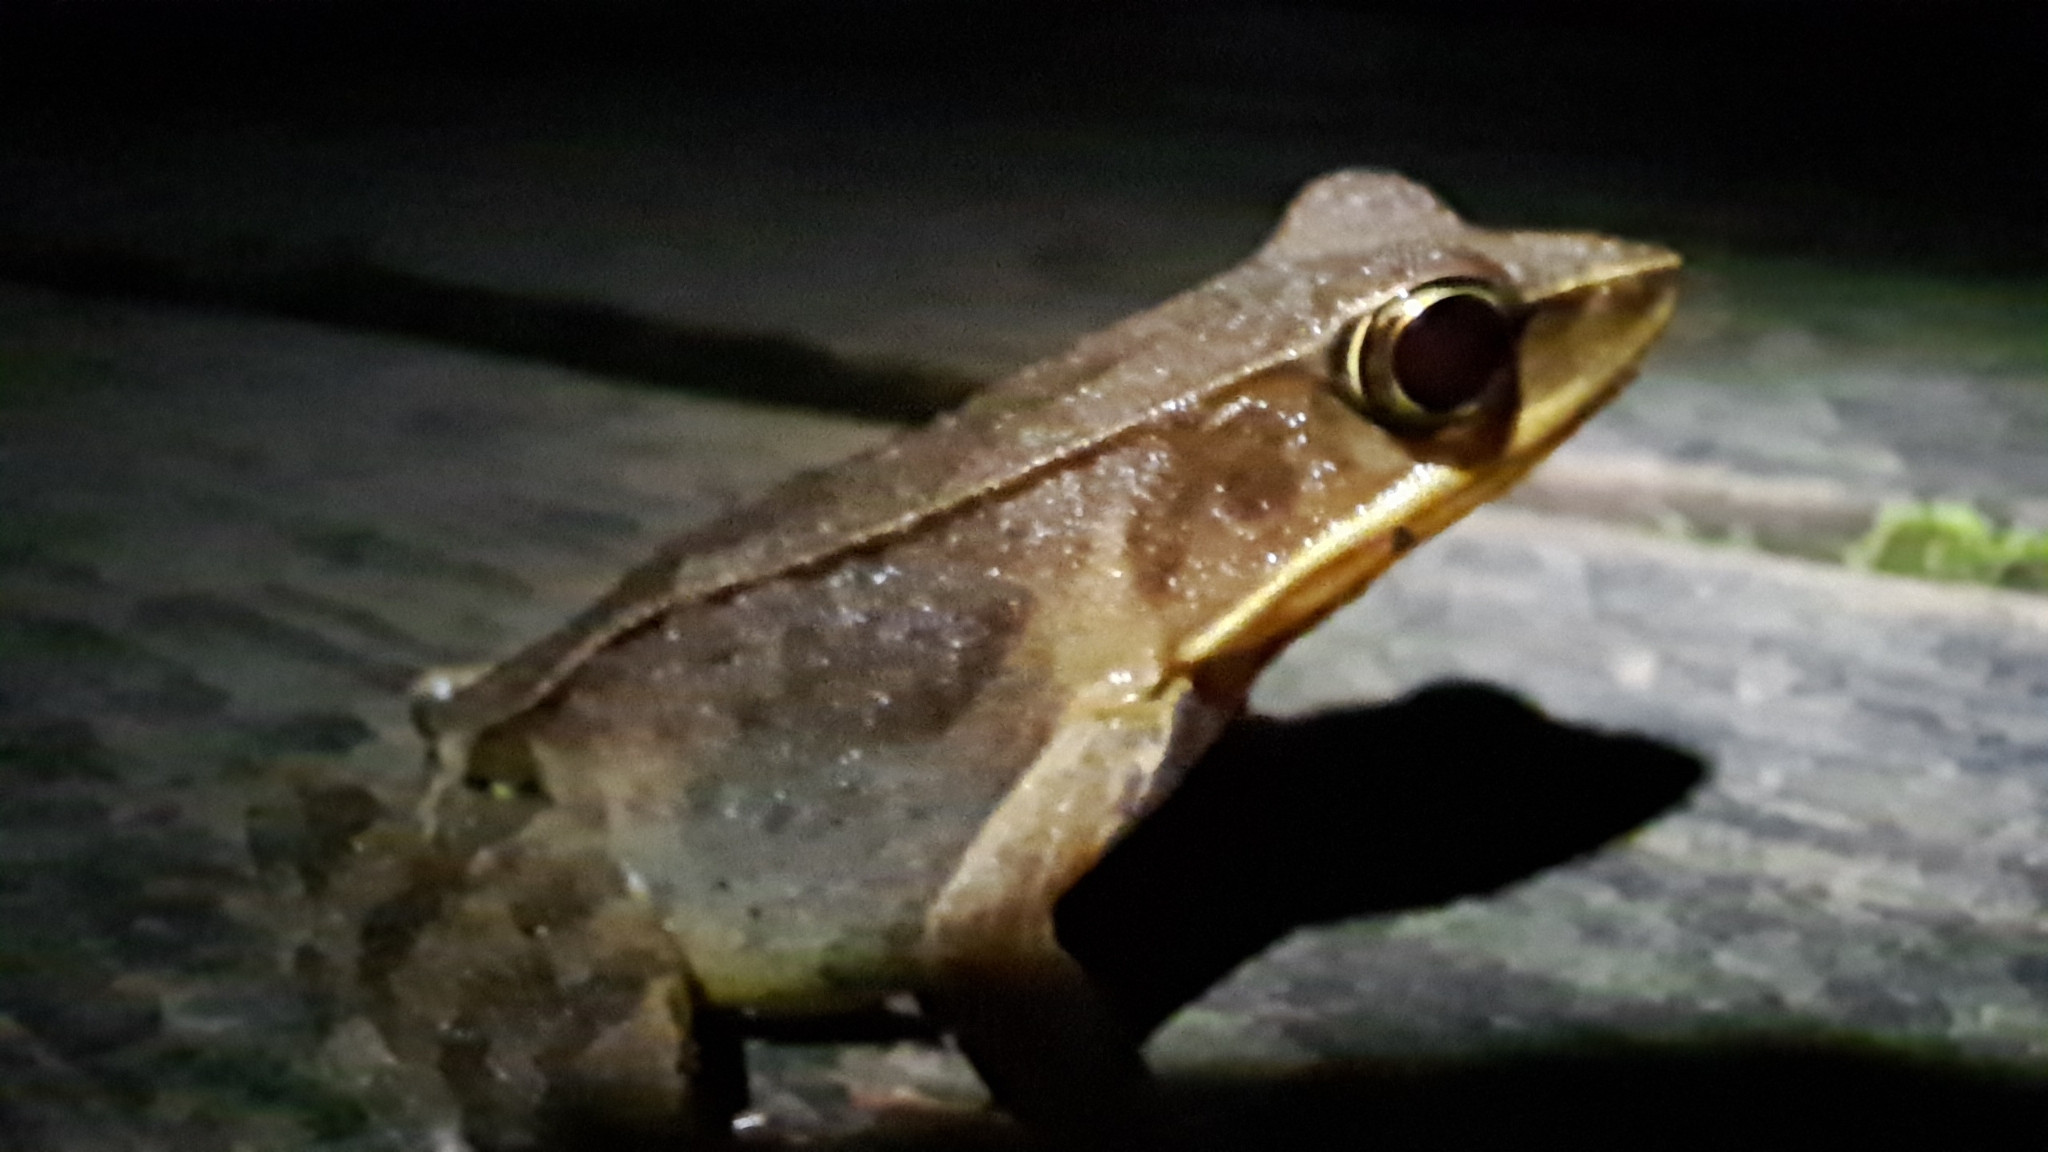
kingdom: Animalia
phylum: Chordata
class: Amphibia
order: Anura
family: Ranidae
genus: Lithobates
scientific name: Lithobates warszewitschii
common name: Warszewitsch's frog
